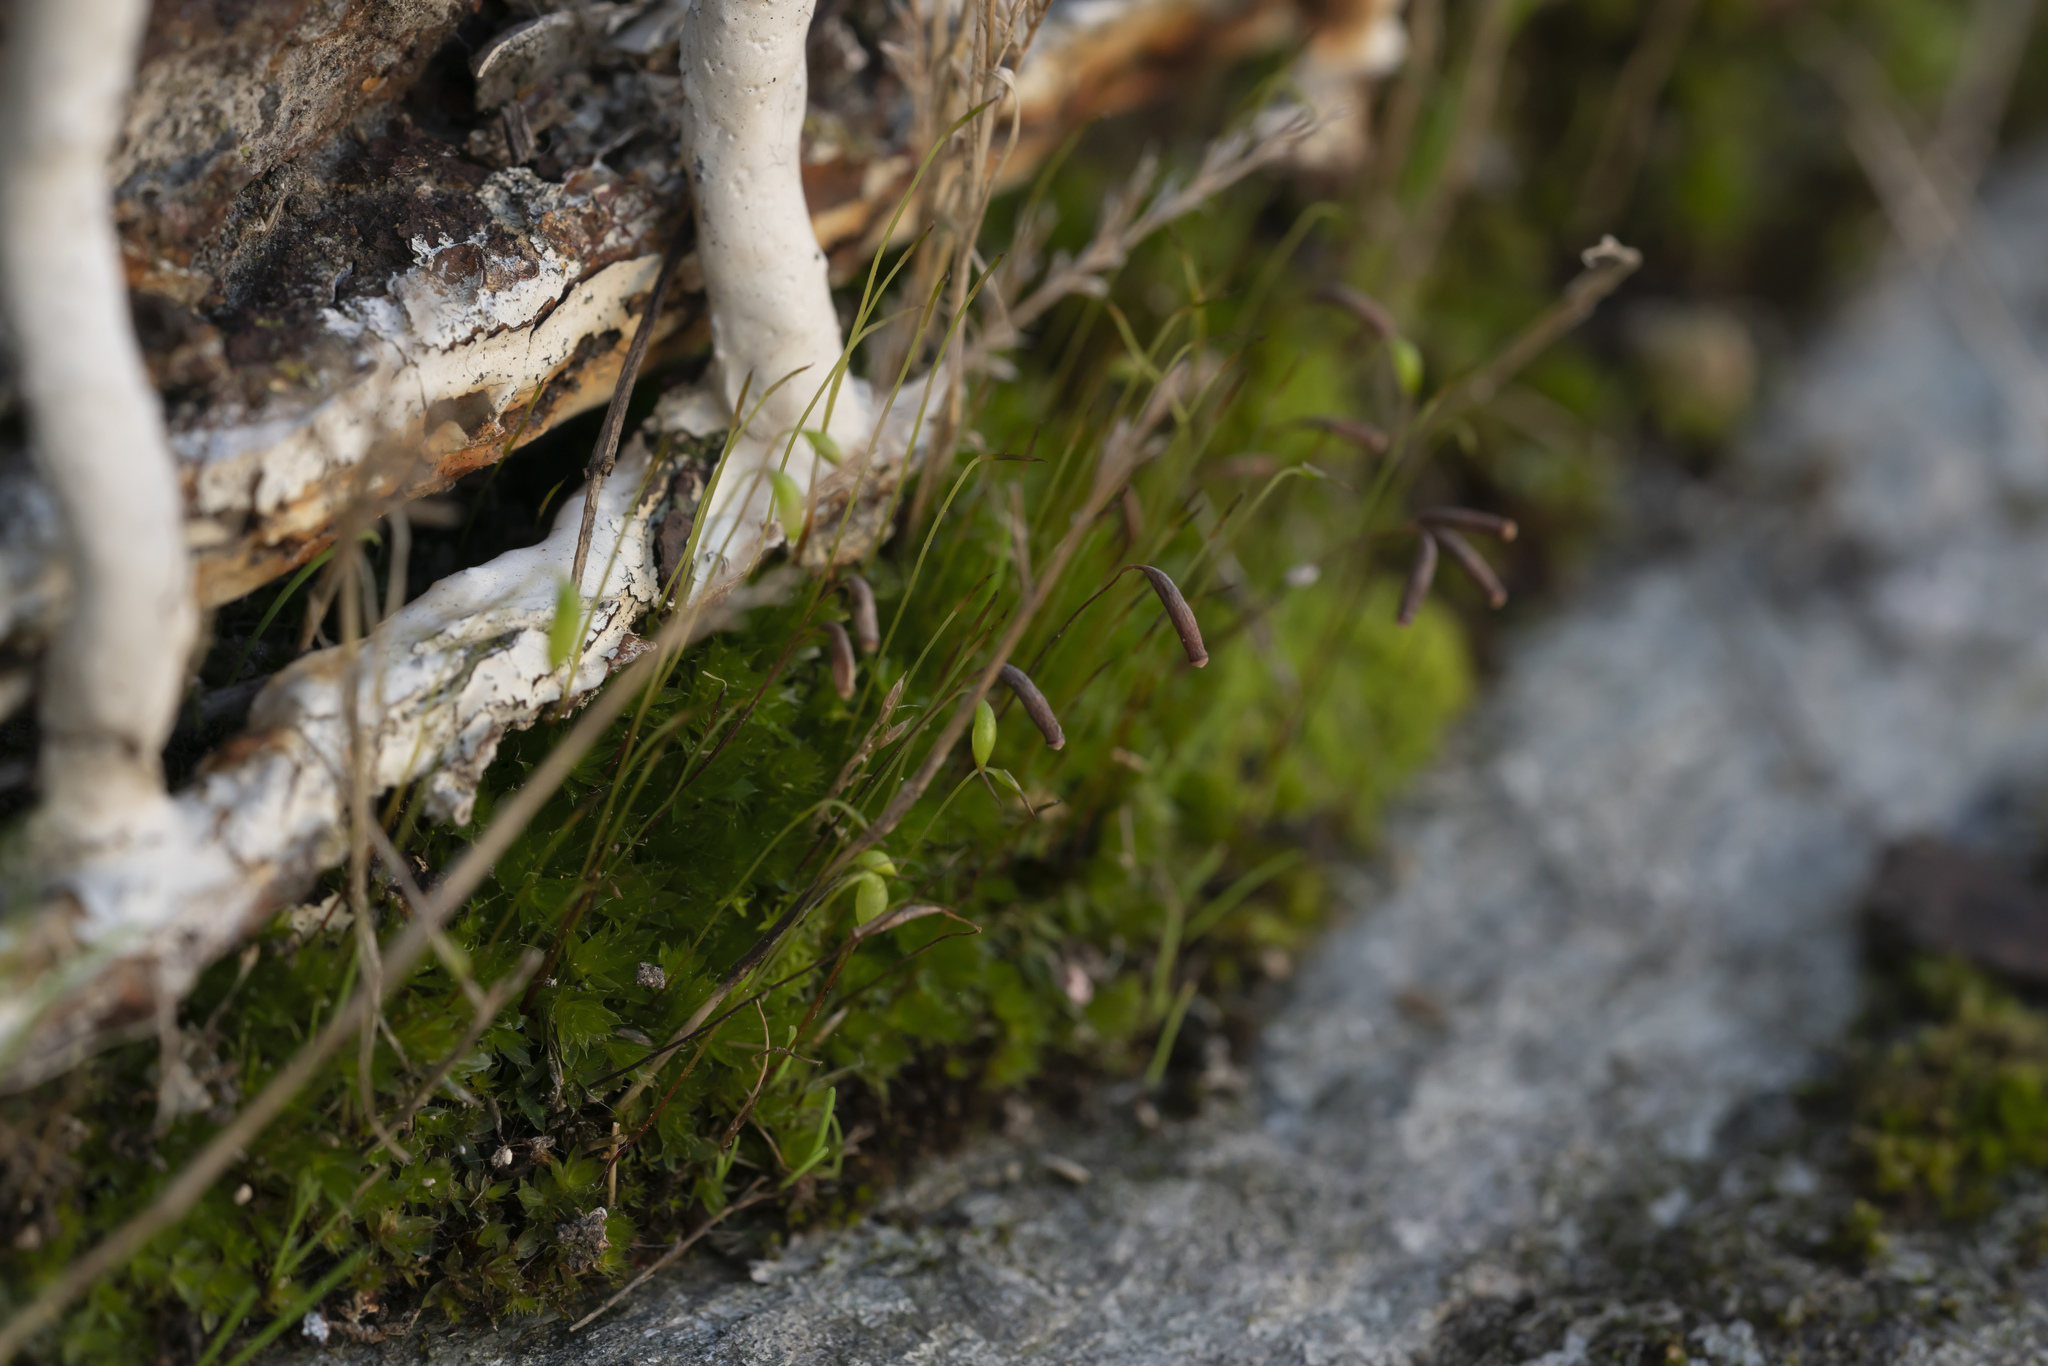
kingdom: Plantae
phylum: Bryophyta
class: Bryopsida
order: Bryales
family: Bryaceae
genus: Rosulabryum
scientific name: Rosulabryum capillare
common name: Capillary thread-moss
